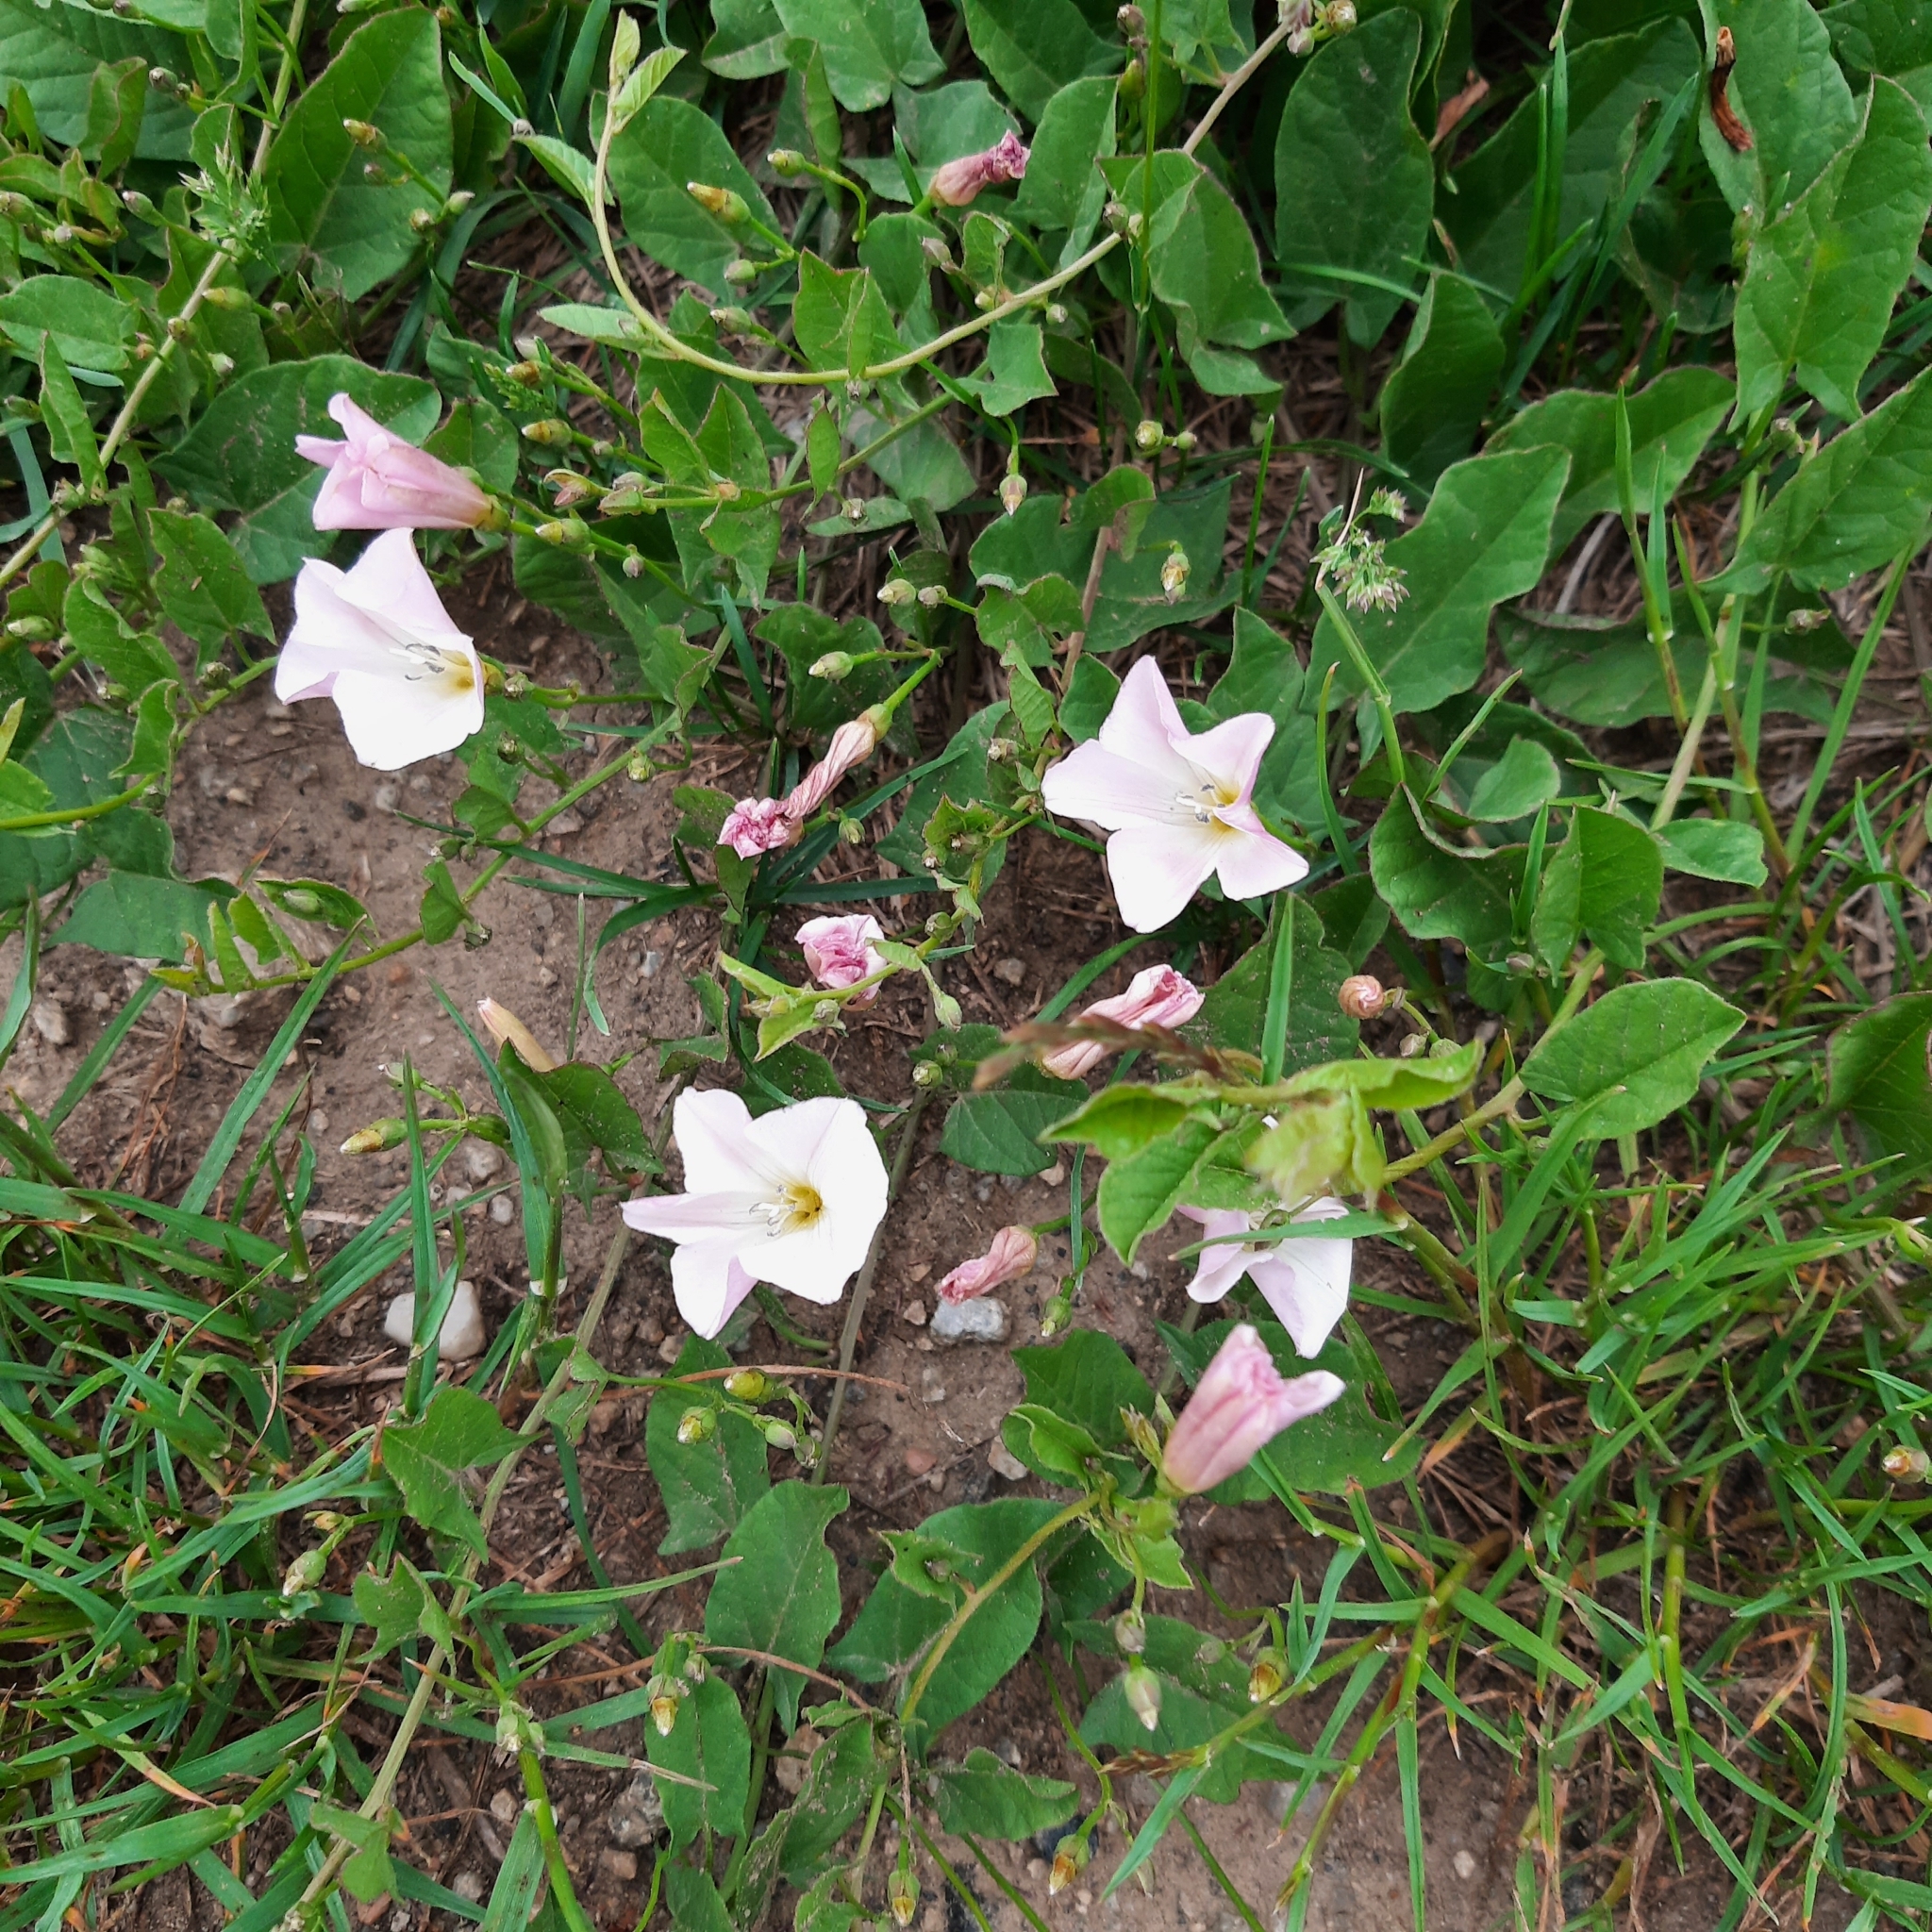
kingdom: Plantae
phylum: Tracheophyta
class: Magnoliopsida
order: Solanales
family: Convolvulaceae
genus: Convolvulus
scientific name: Convolvulus arvensis
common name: Field bindweed
